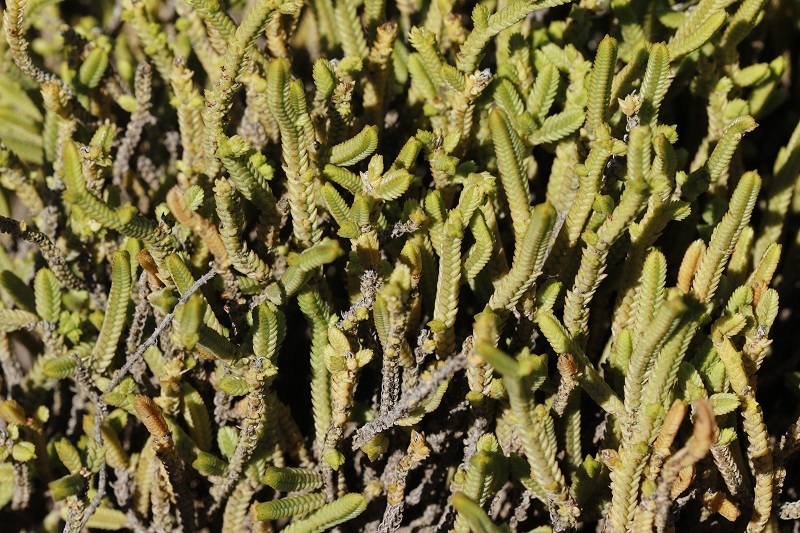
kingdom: Plantae
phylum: Tracheophyta
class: Magnoliopsida
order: Saxifragales
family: Crassulaceae
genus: Crassula
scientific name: Crassula muscosa
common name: Toy-cypress
